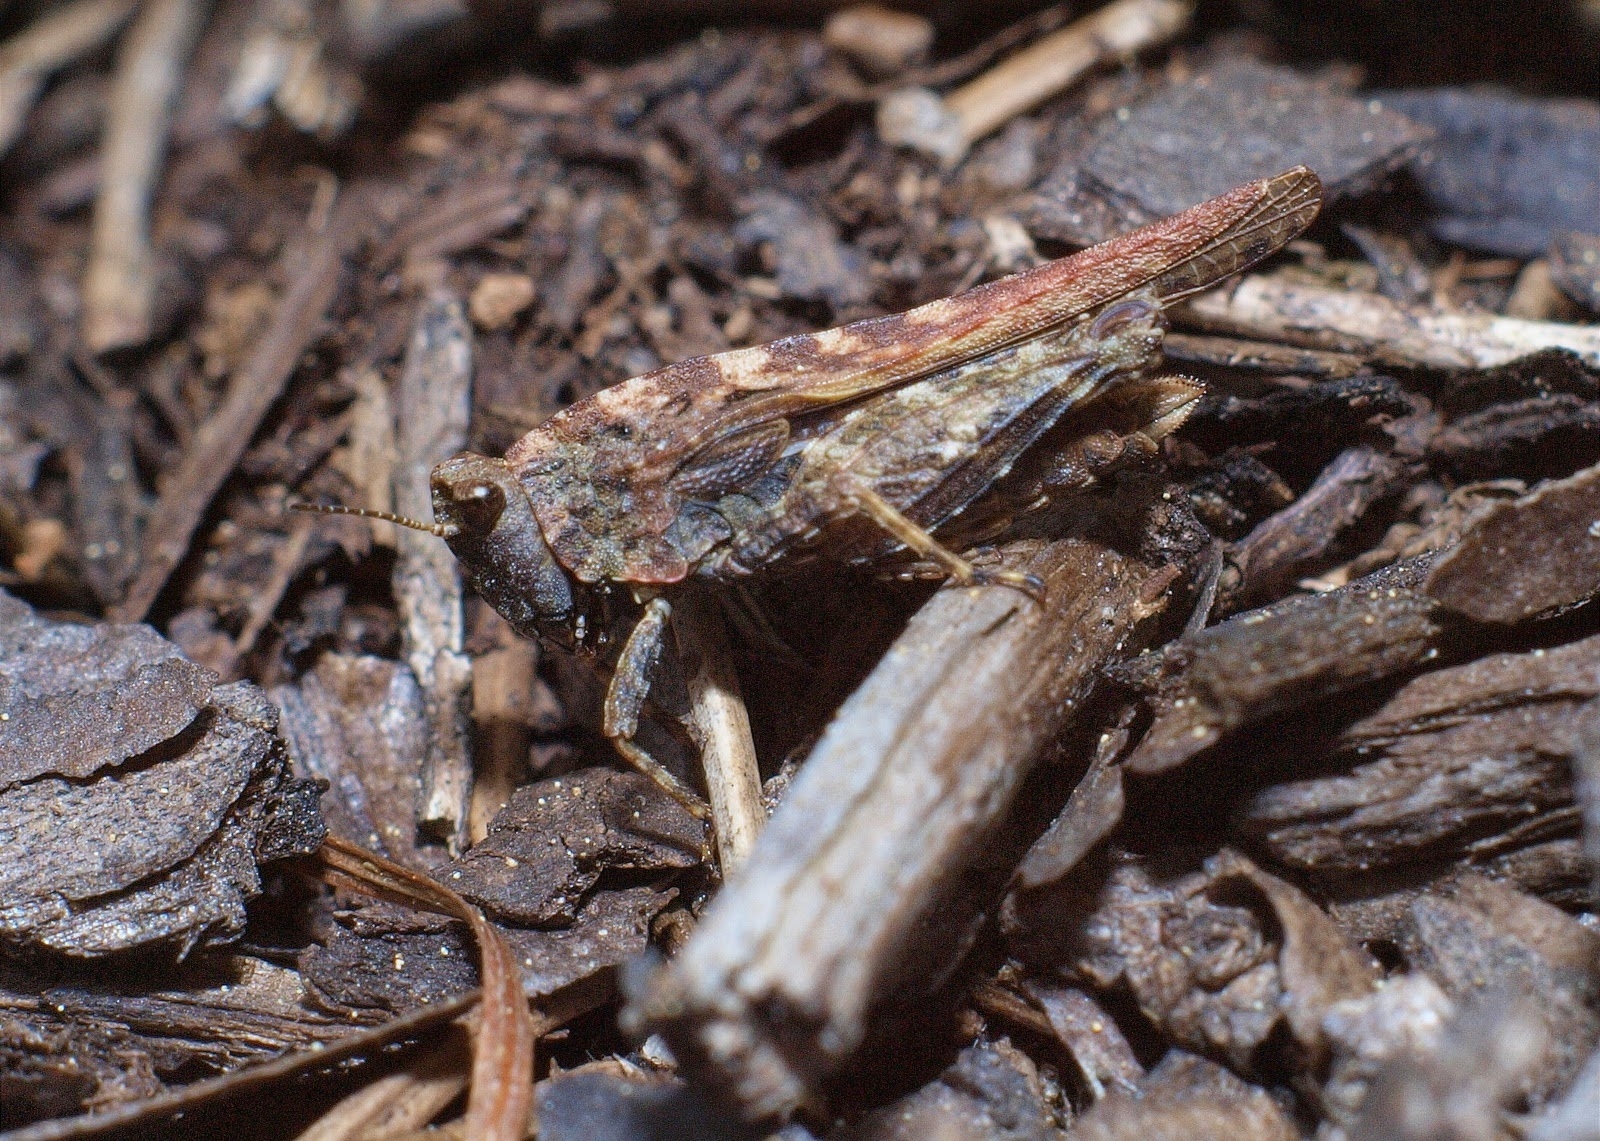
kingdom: Animalia
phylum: Arthropoda
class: Insecta
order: Orthoptera
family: Tetrigidae
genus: Tetrix
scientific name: Tetrix subulata
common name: Slender ground-hopper
